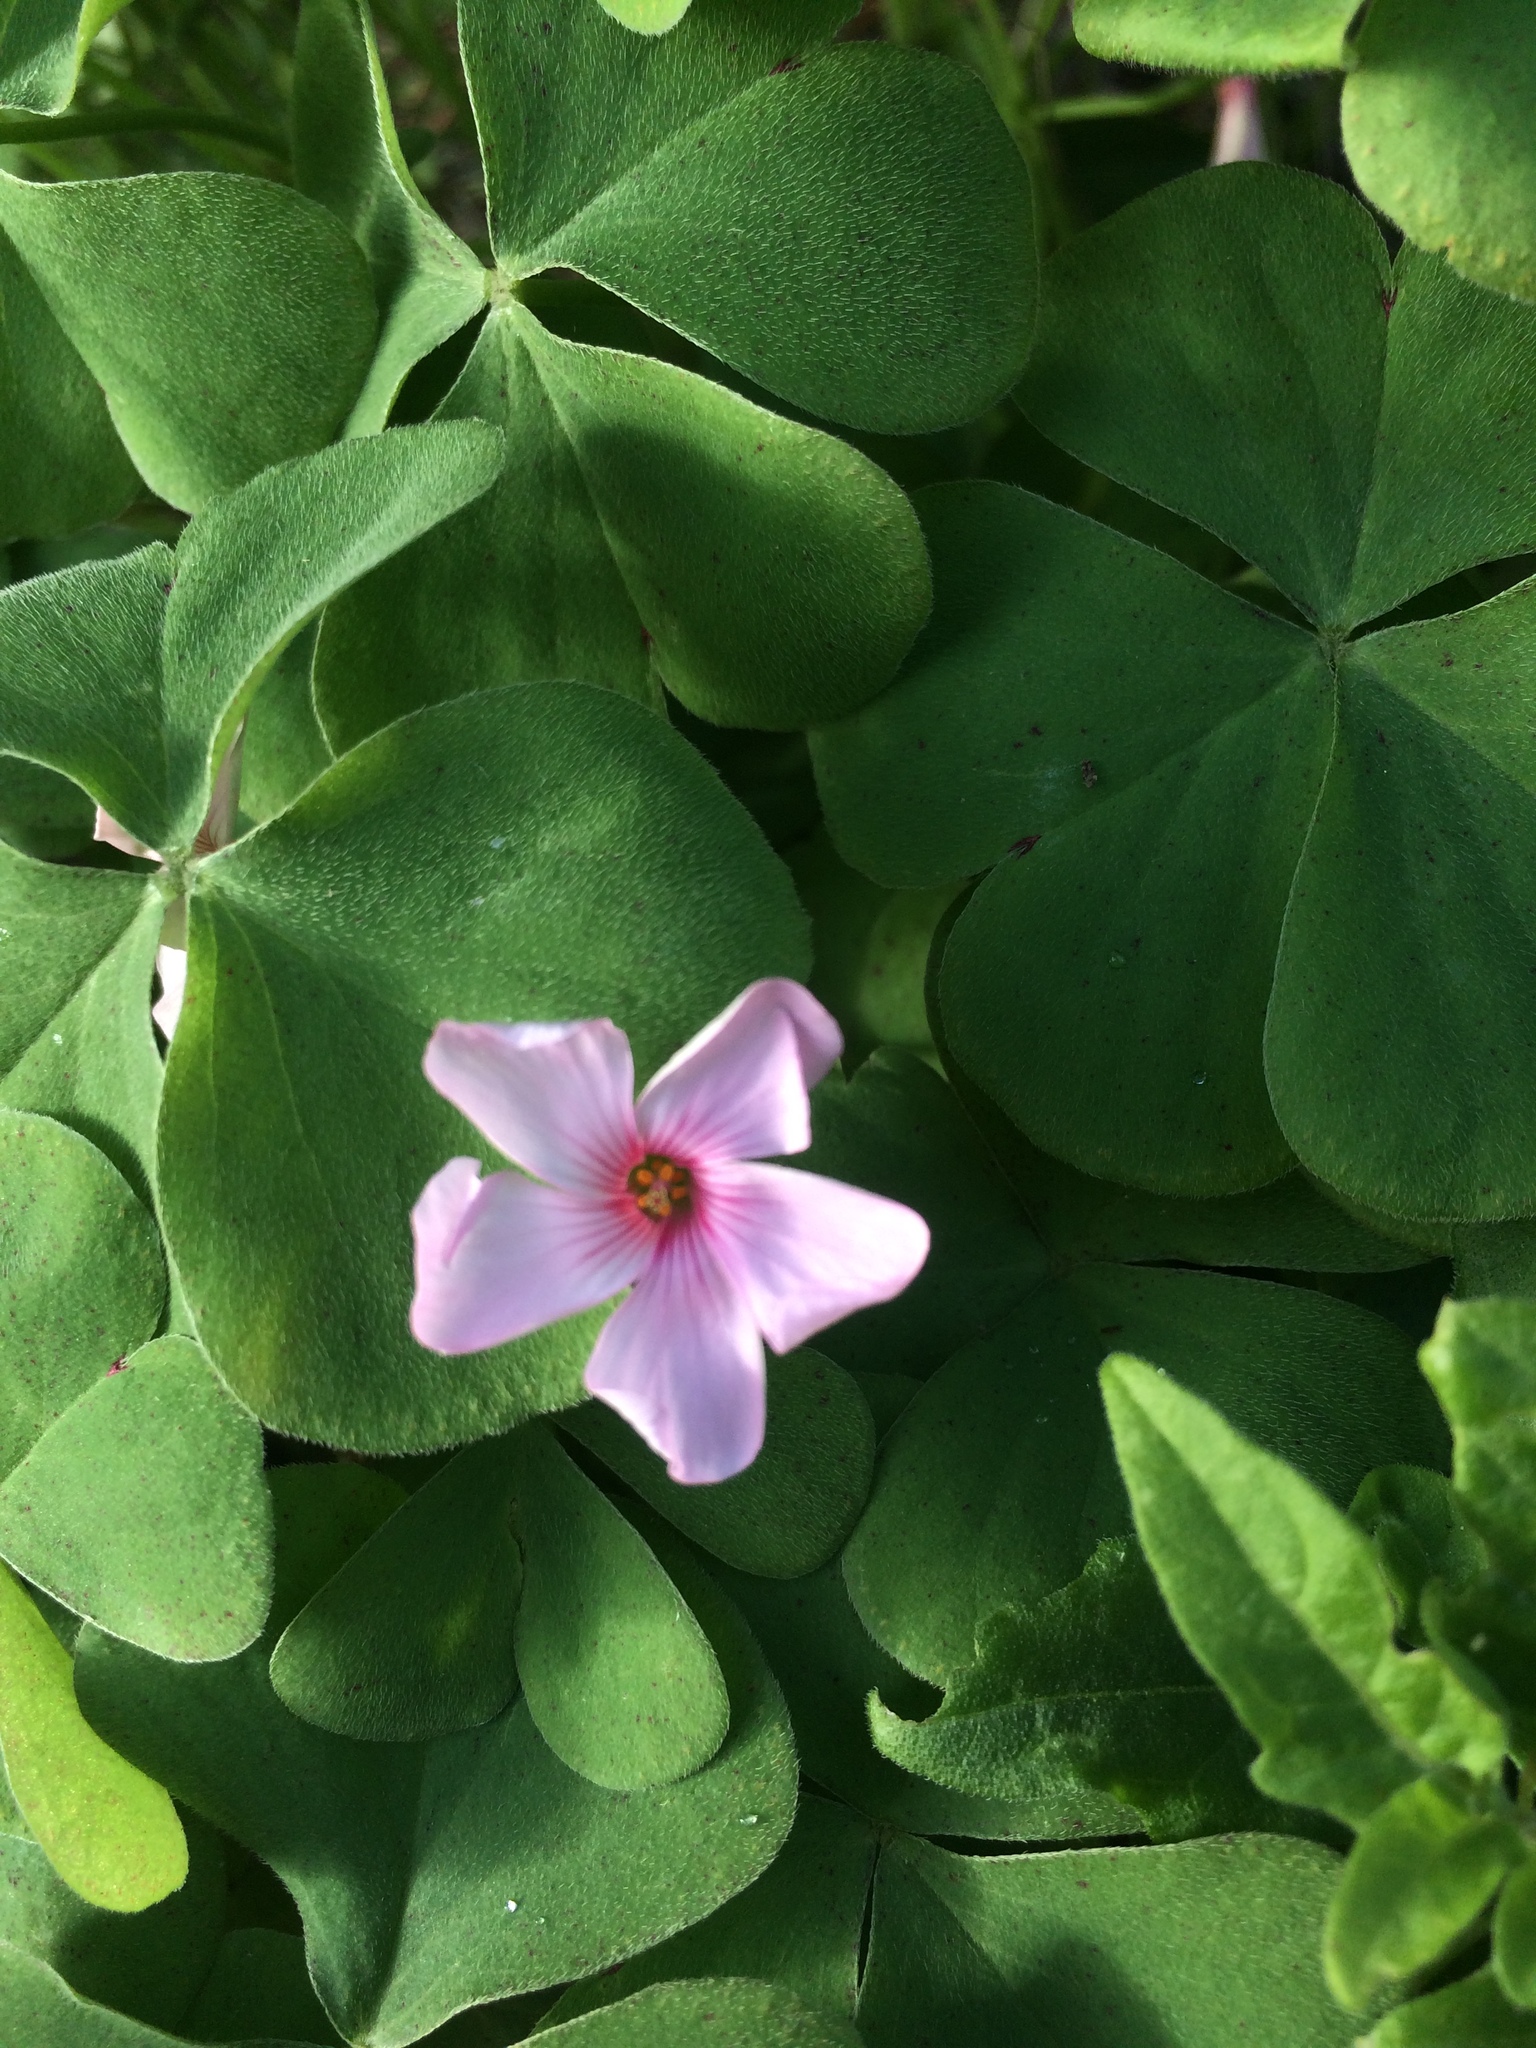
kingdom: Plantae
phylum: Tracheophyta
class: Magnoliopsida
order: Oxalidales
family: Oxalidaceae
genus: Oxalis
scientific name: Oxalis articulata
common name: Pink-sorrel
